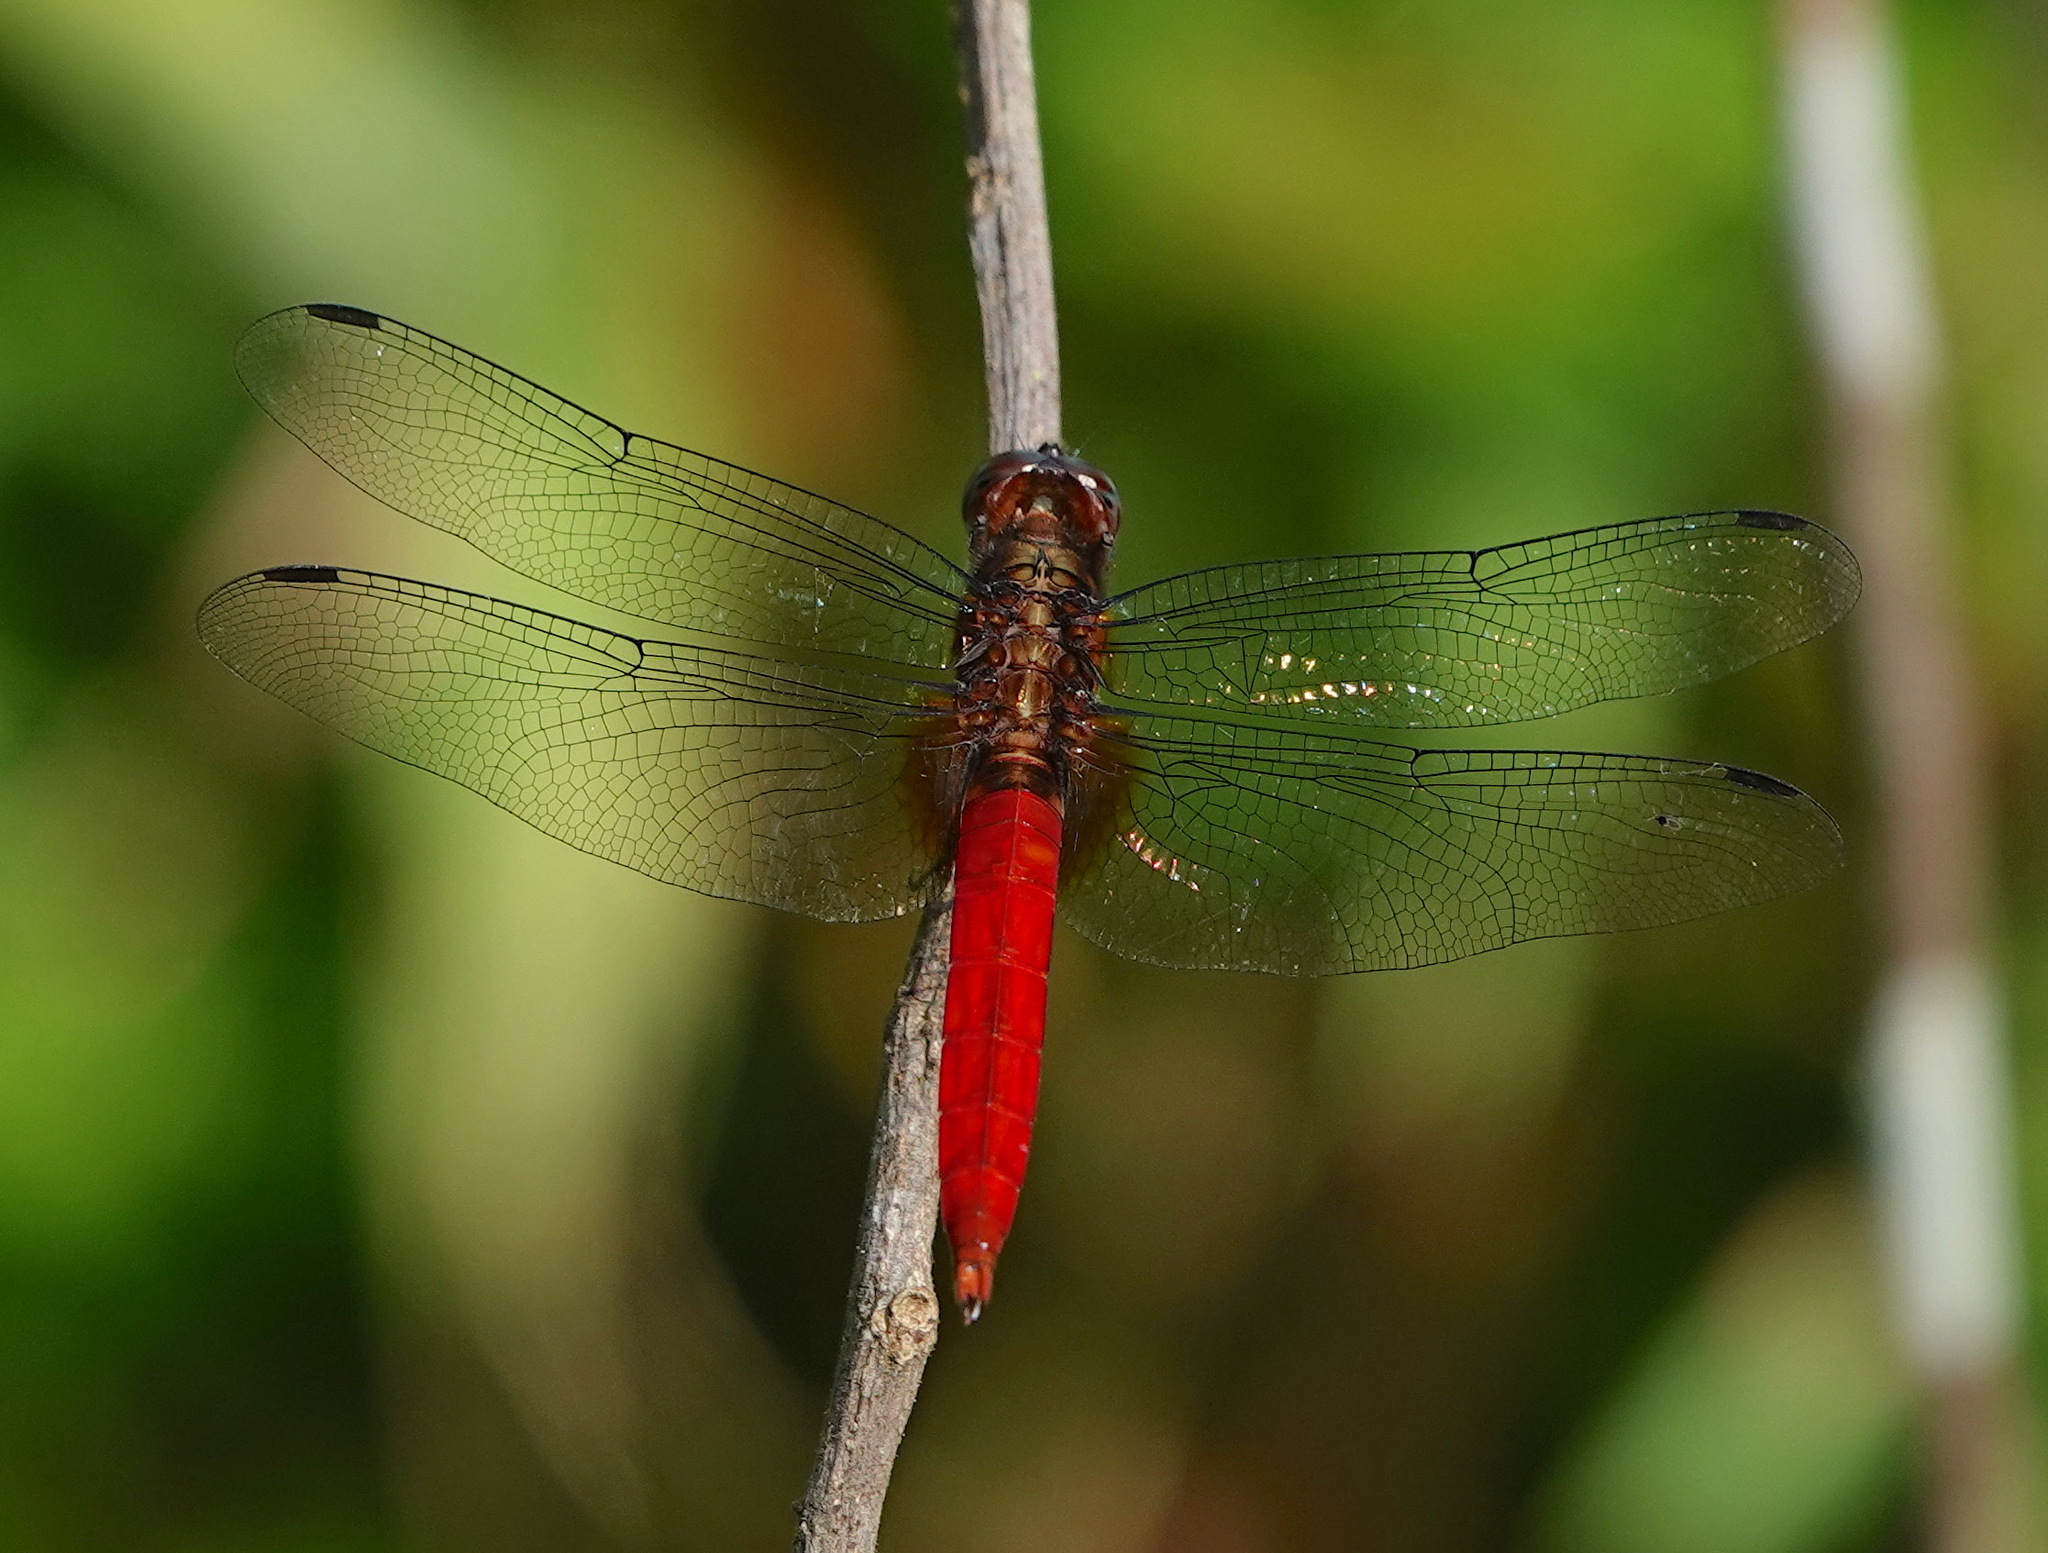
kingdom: Animalia
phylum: Arthropoda
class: Insecta
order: Odonata
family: Libellulidae
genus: Orthetrum
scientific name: Orthetrum chrysis
